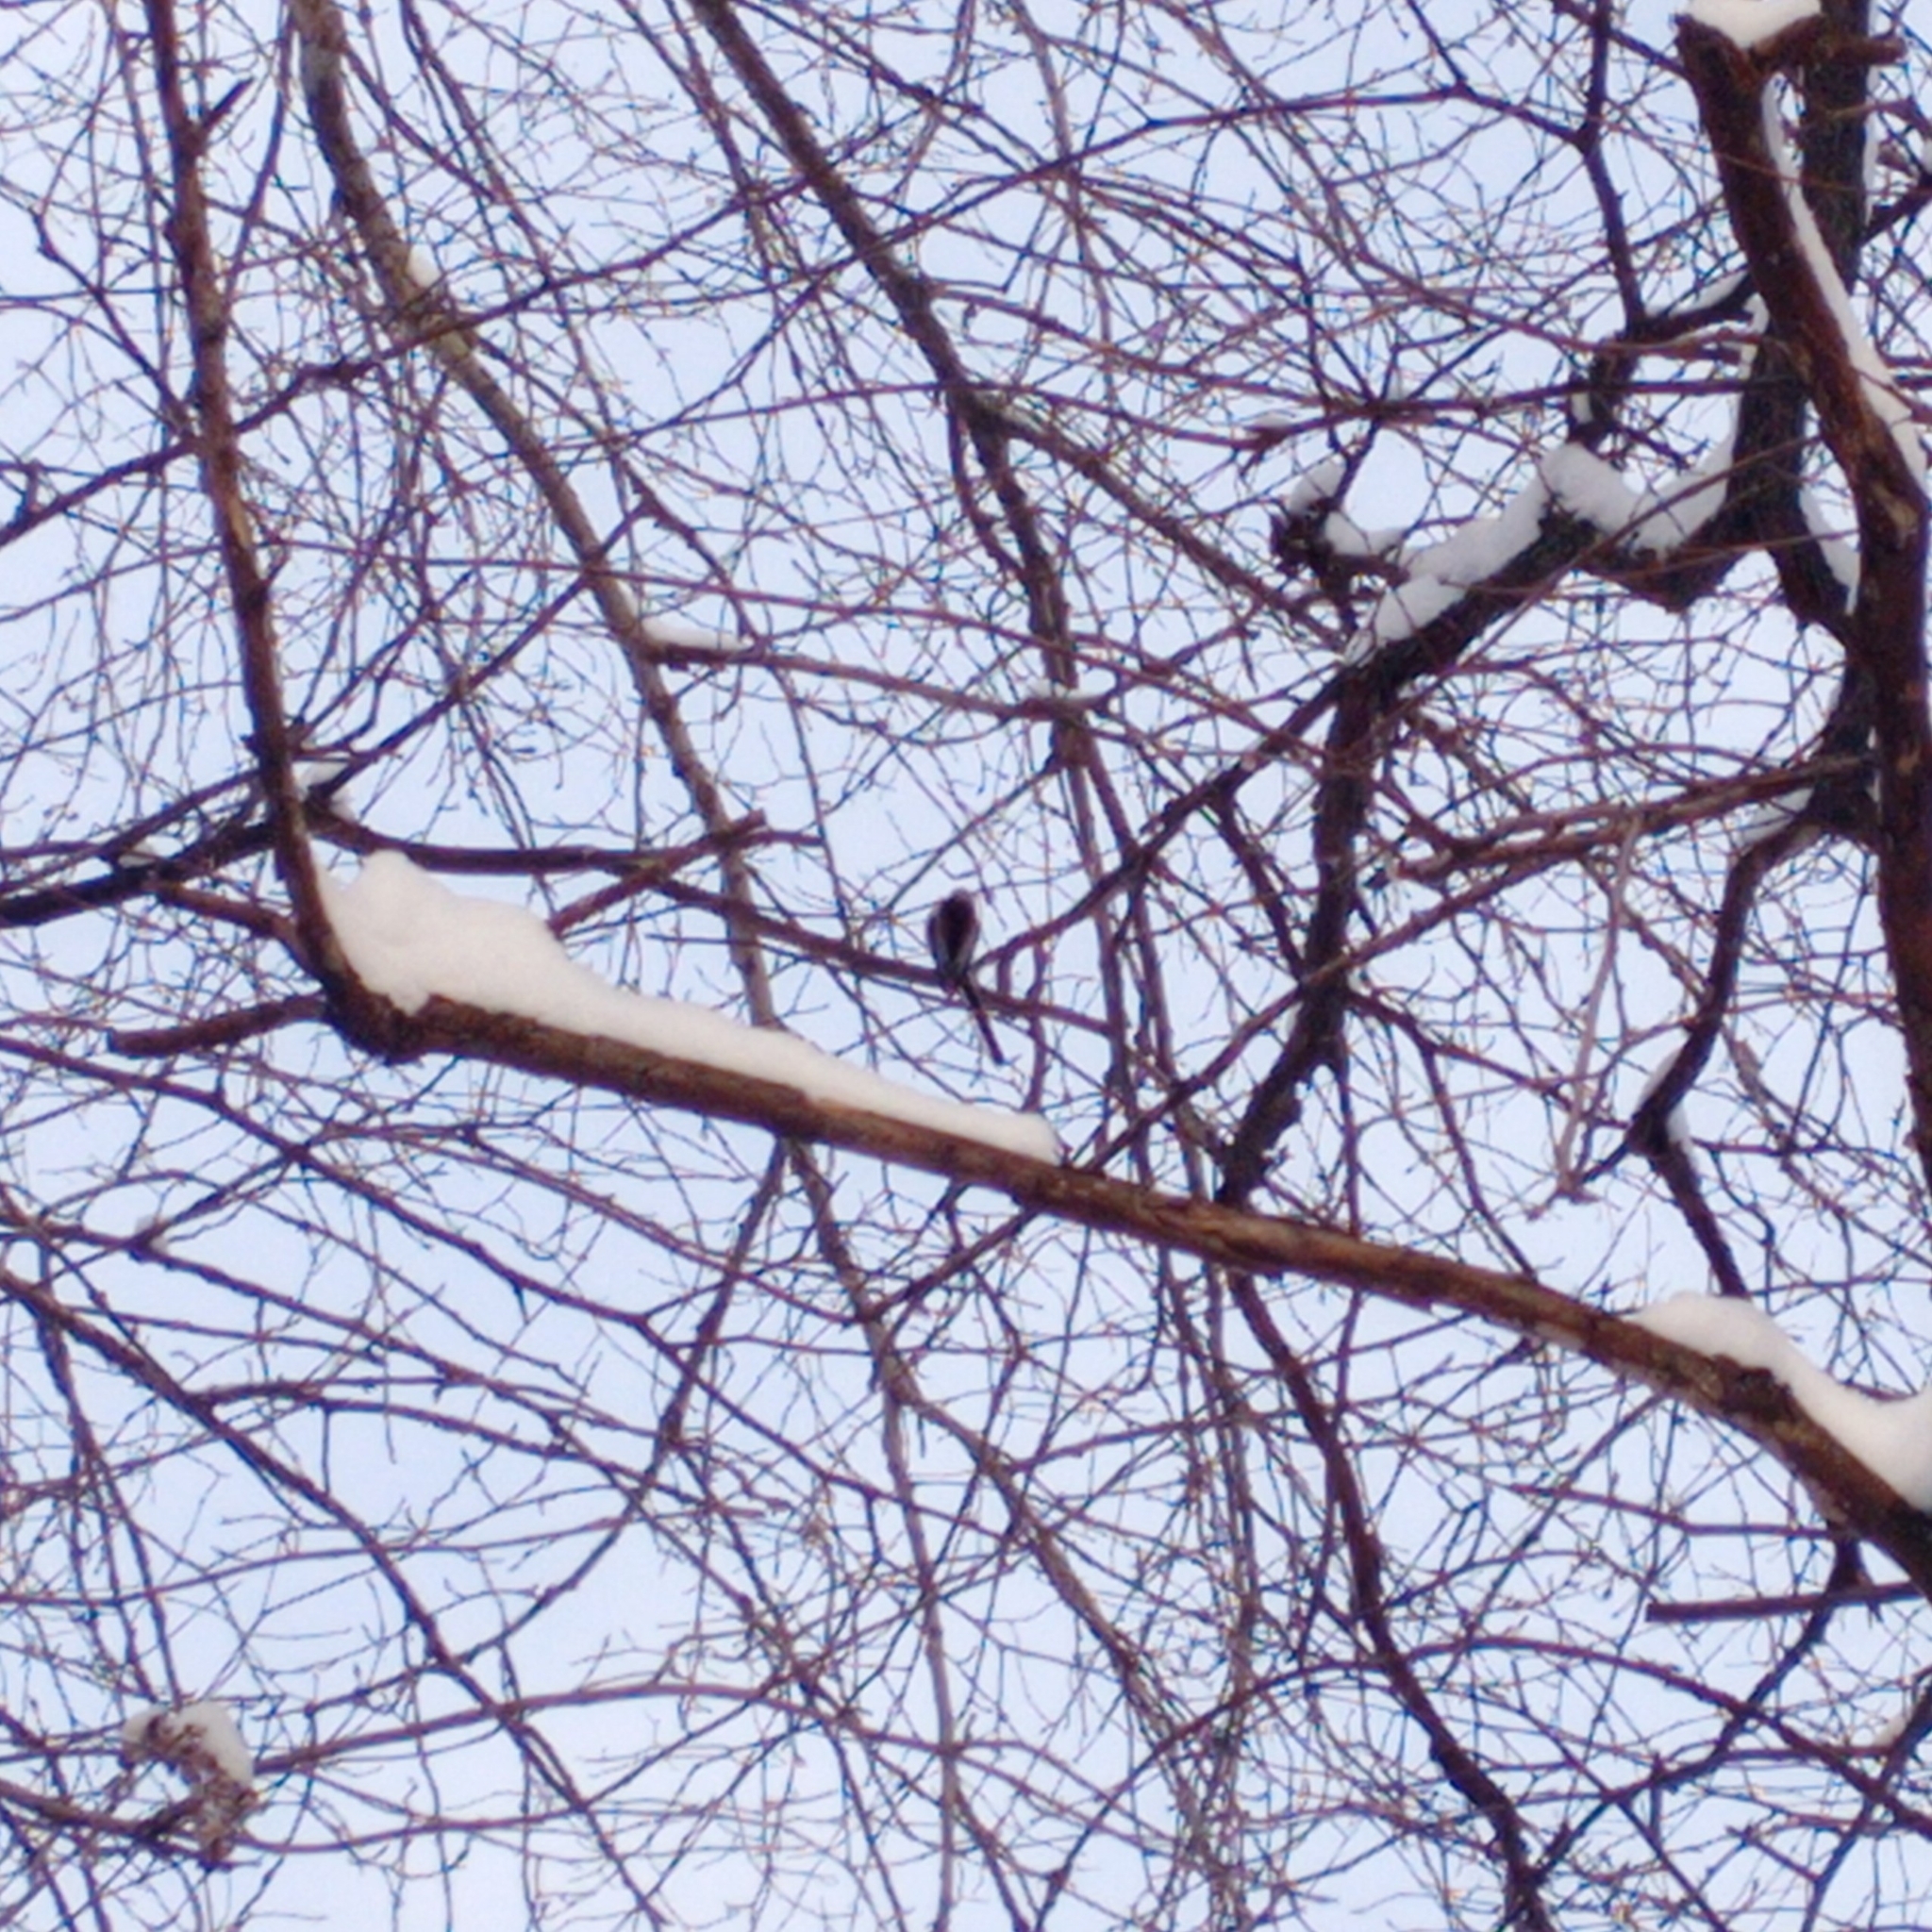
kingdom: Animalia
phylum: Chordata
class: Aves
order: Passeriformes
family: Aegithalidae
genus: Aegithalos
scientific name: Aegithalos caudatus
